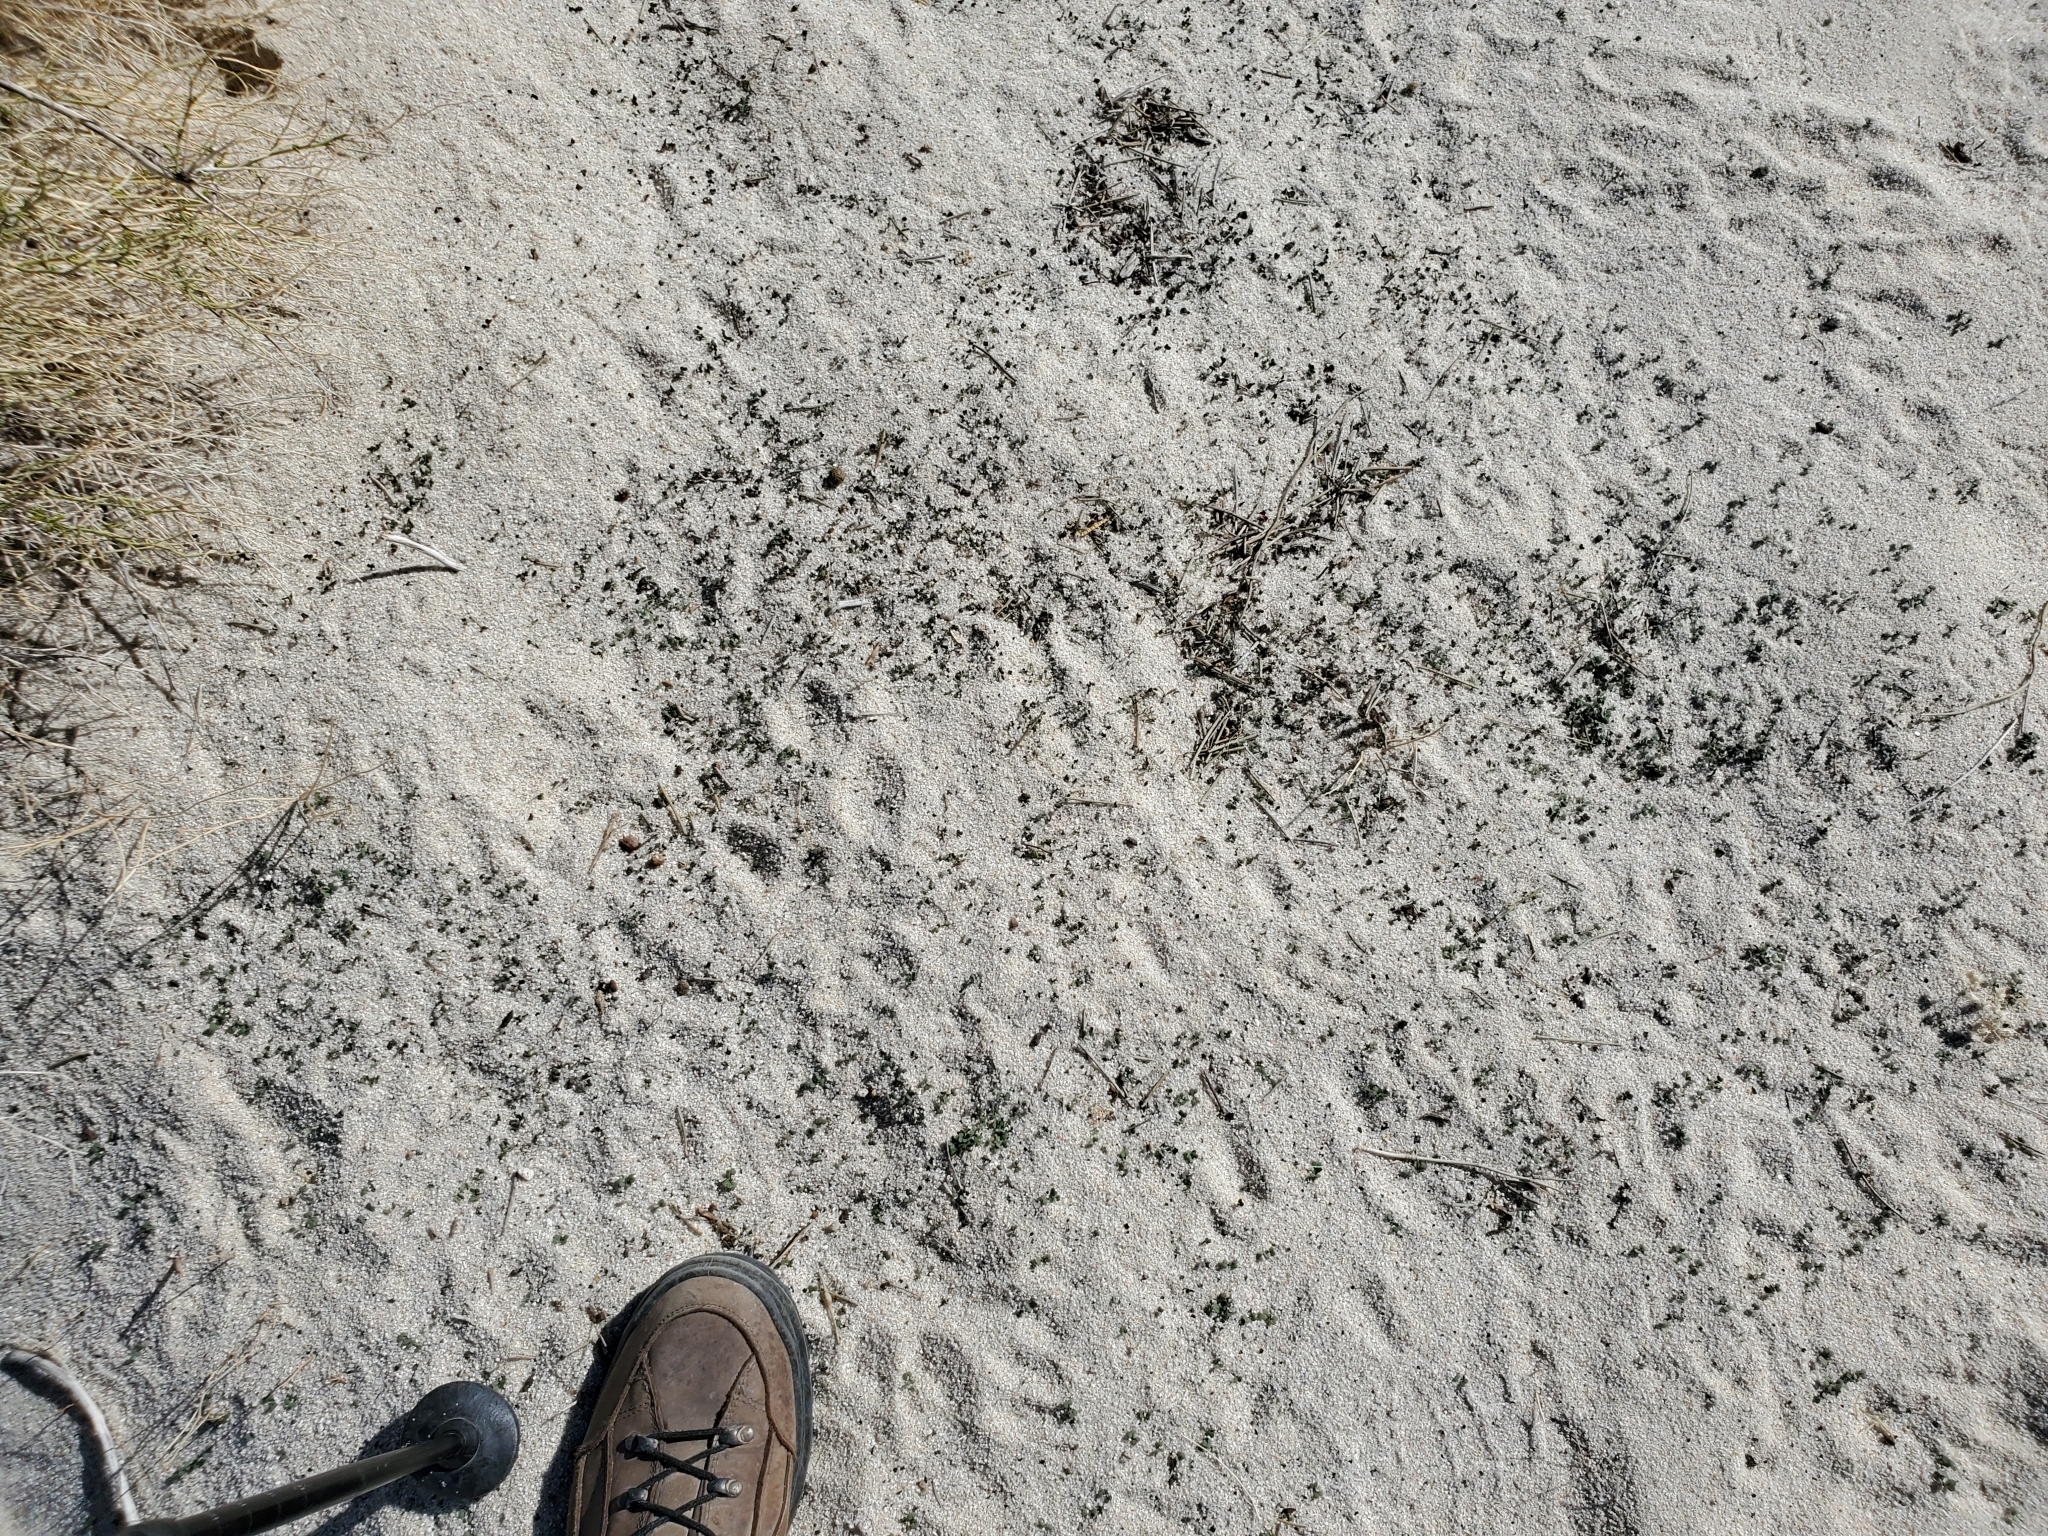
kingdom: Plantae
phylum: Tracheophyta
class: Magnoliopsida
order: Brassicales
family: Brassicaceae
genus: Brassica
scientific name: Brassica tournefortii
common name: Pale cabbage
